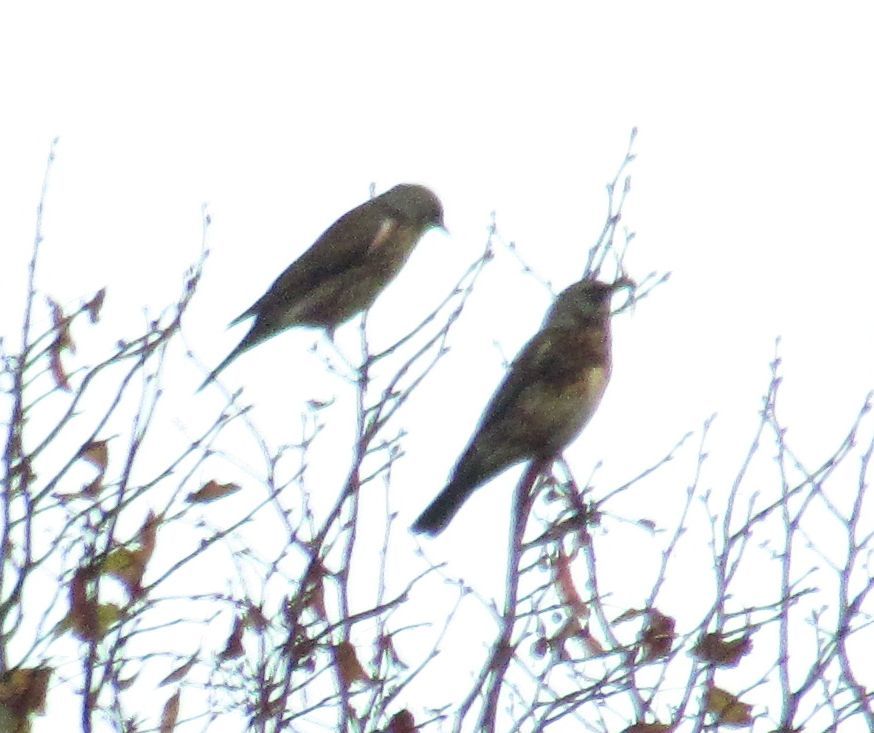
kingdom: Animalia
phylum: Chordata
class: Aves
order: Passeriformes
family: Turdidae
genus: Turdus
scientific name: Turdus pilaris
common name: Fieldfare
